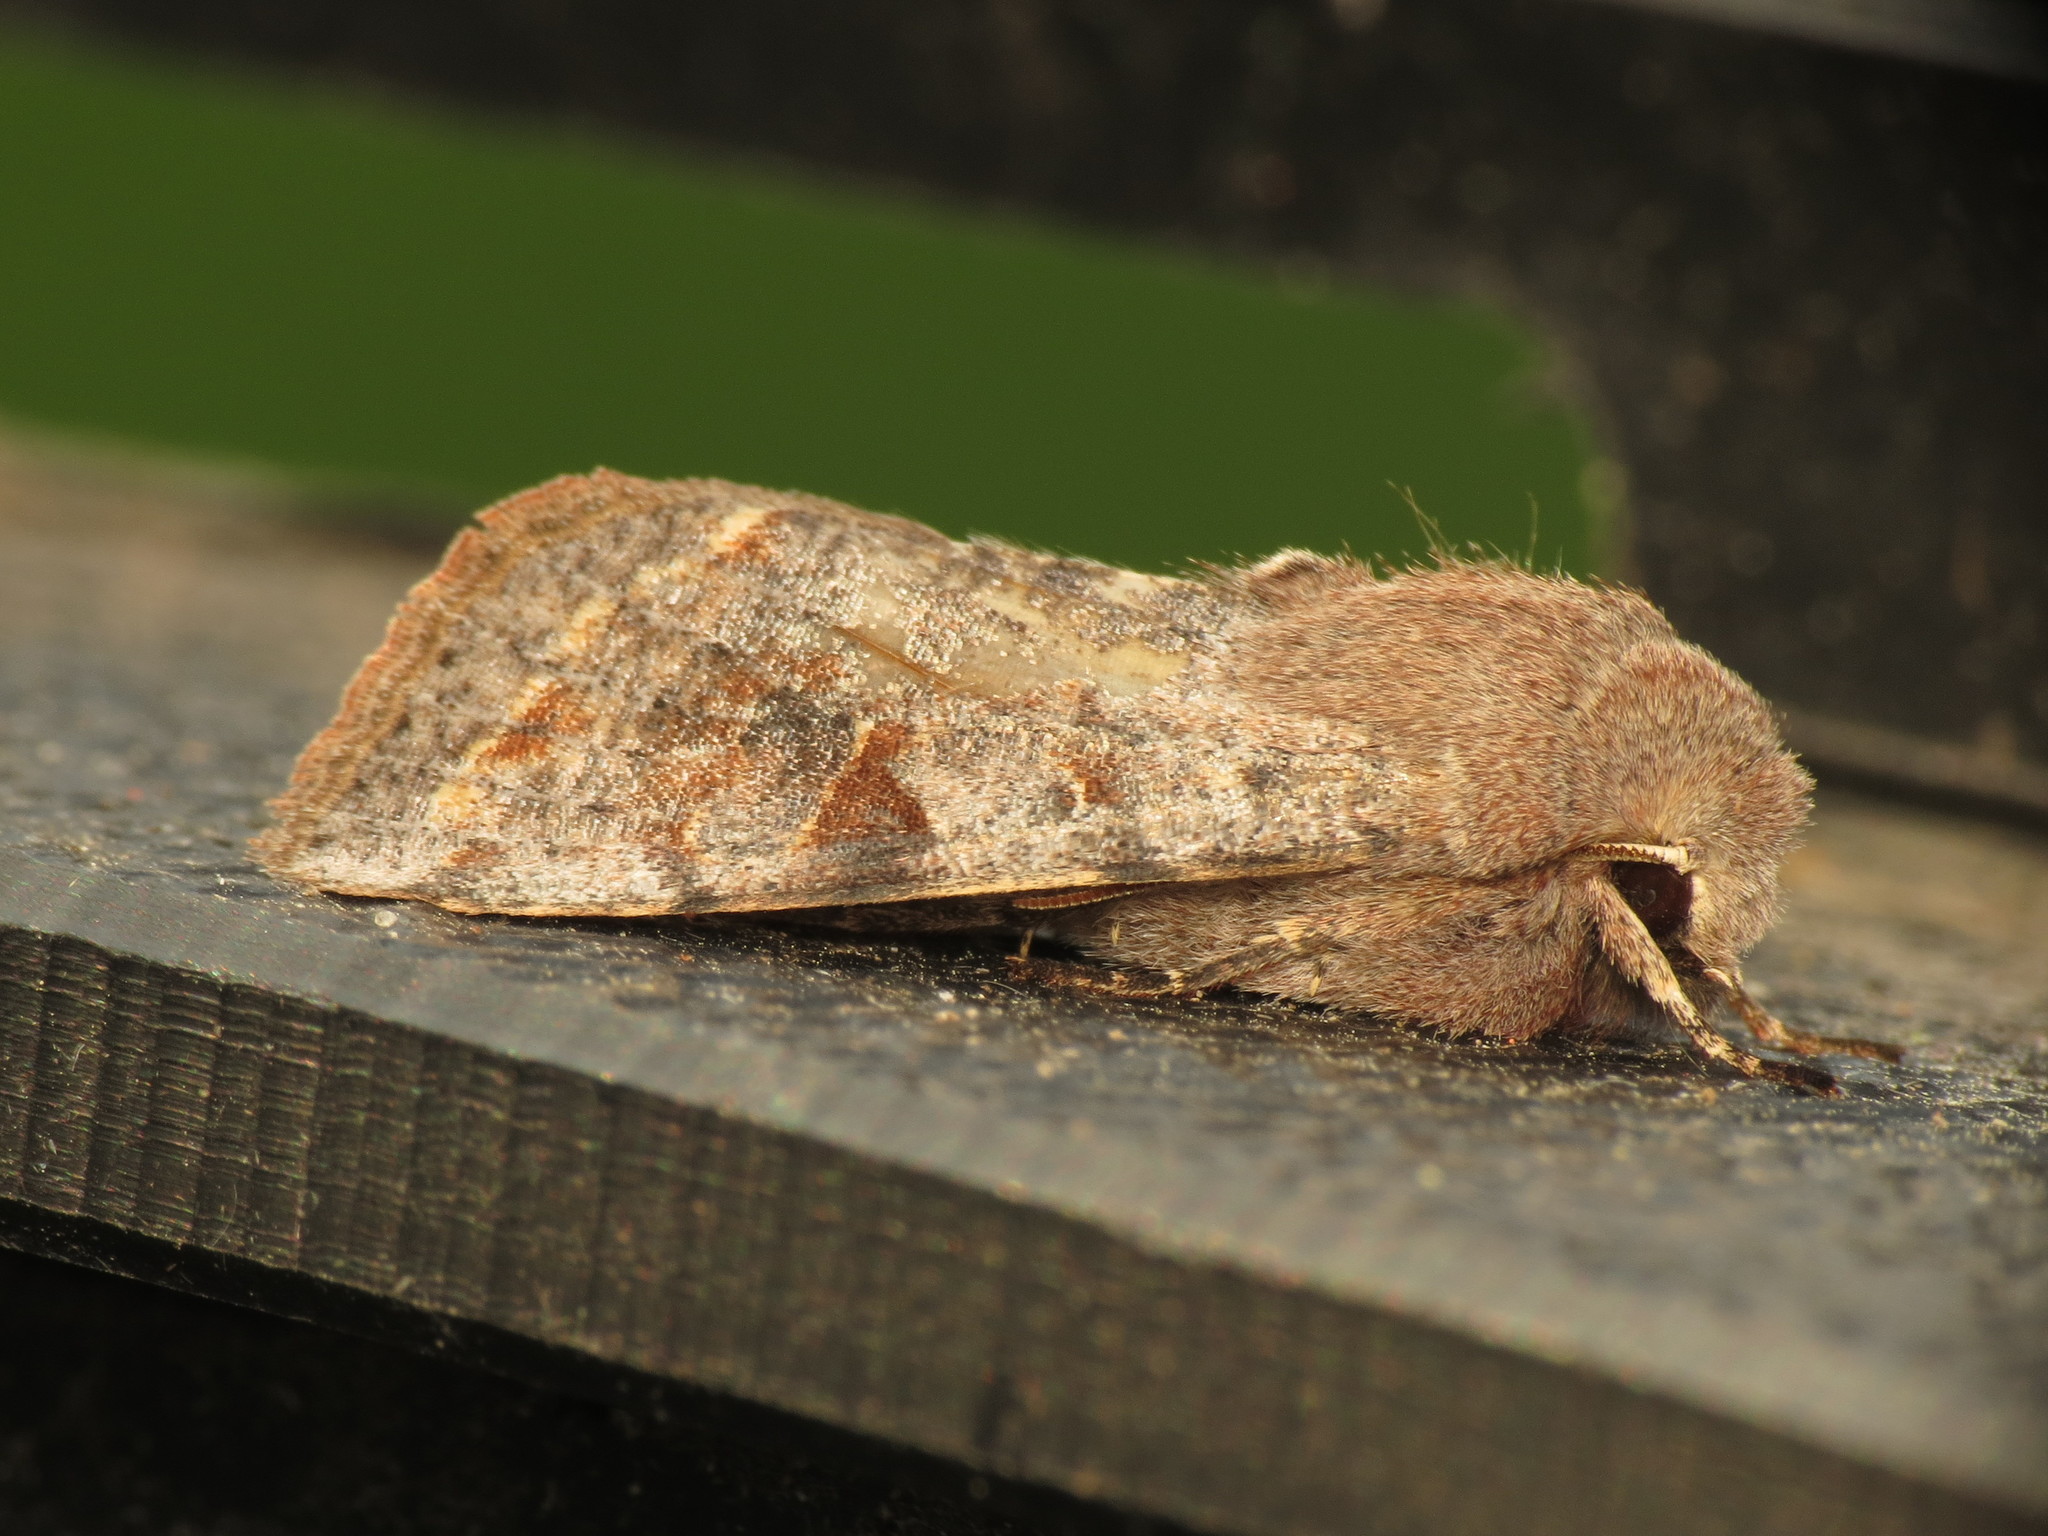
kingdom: Animalia
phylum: Arthropoda
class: Insecta
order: Lepidoptera
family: Noctuidae
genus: Orthosia
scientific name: Orthosia incerta
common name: Clouded drab
